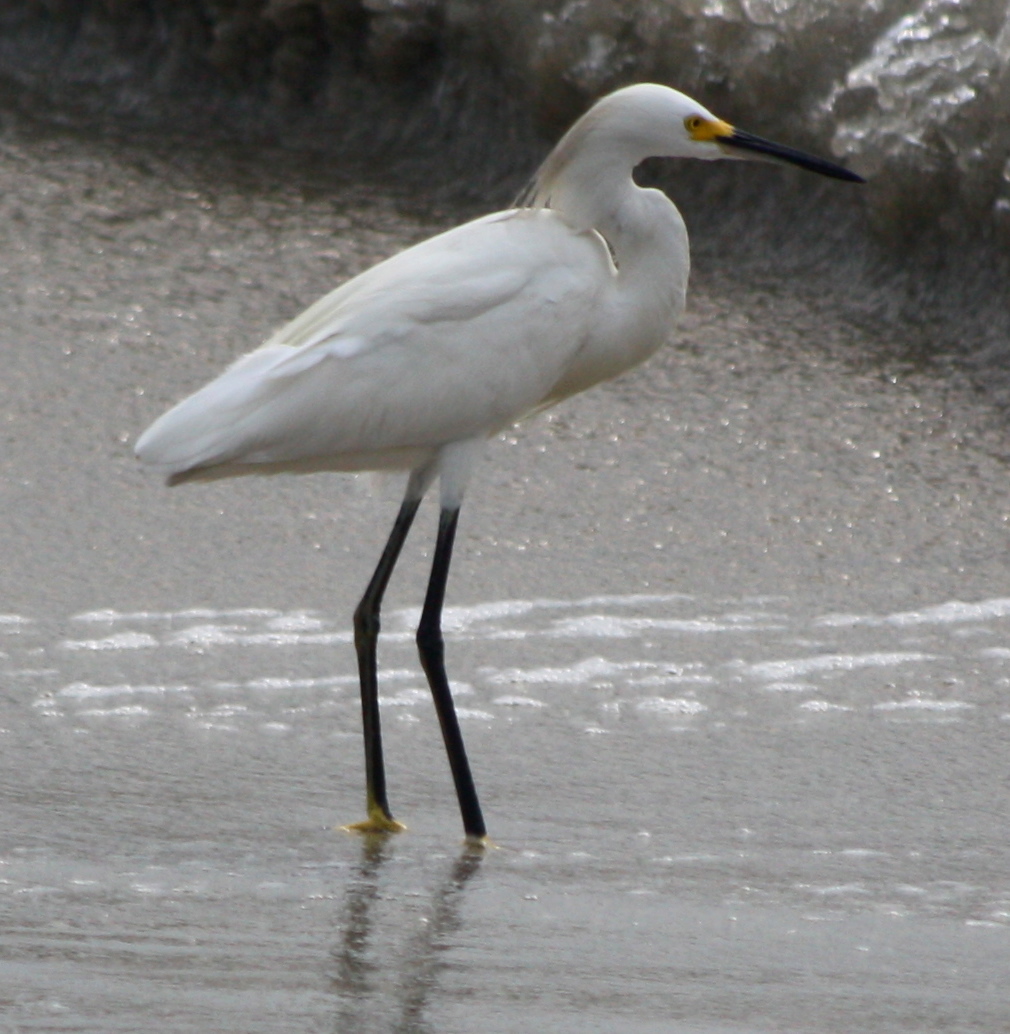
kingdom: Animalia
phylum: Chordata
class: Aves
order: Pelecaniformes
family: Ardeidae
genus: Egretta
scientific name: Egretta thula
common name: Snowy egret
